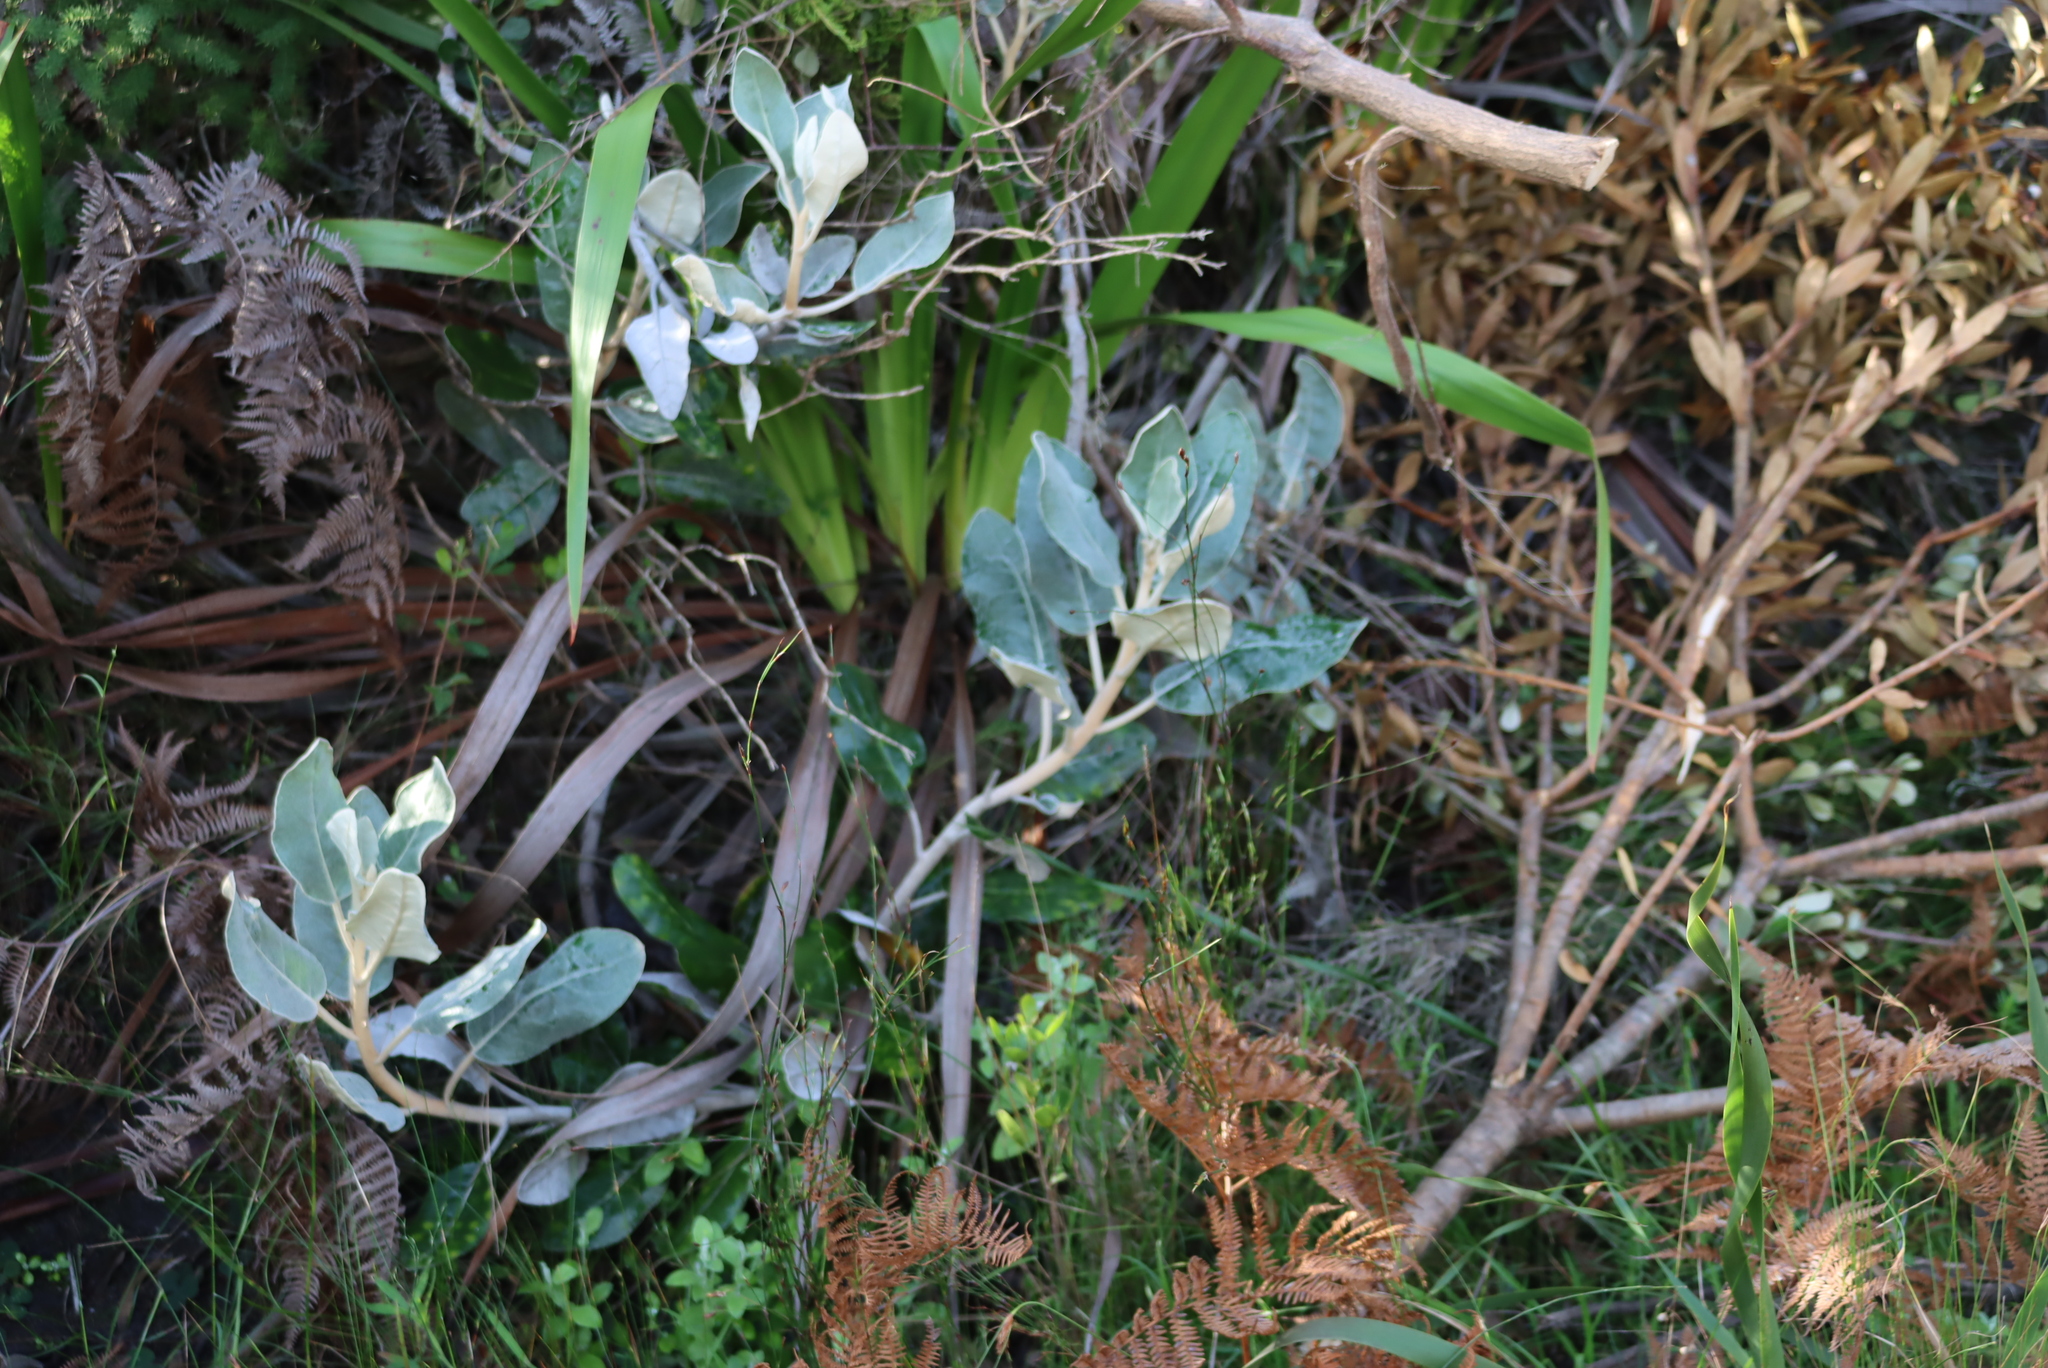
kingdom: Plantae
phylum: Tracheophyta
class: Magnoliopsida
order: Asterales
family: Asteraceae
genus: Capelio
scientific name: Capelio tabularis
